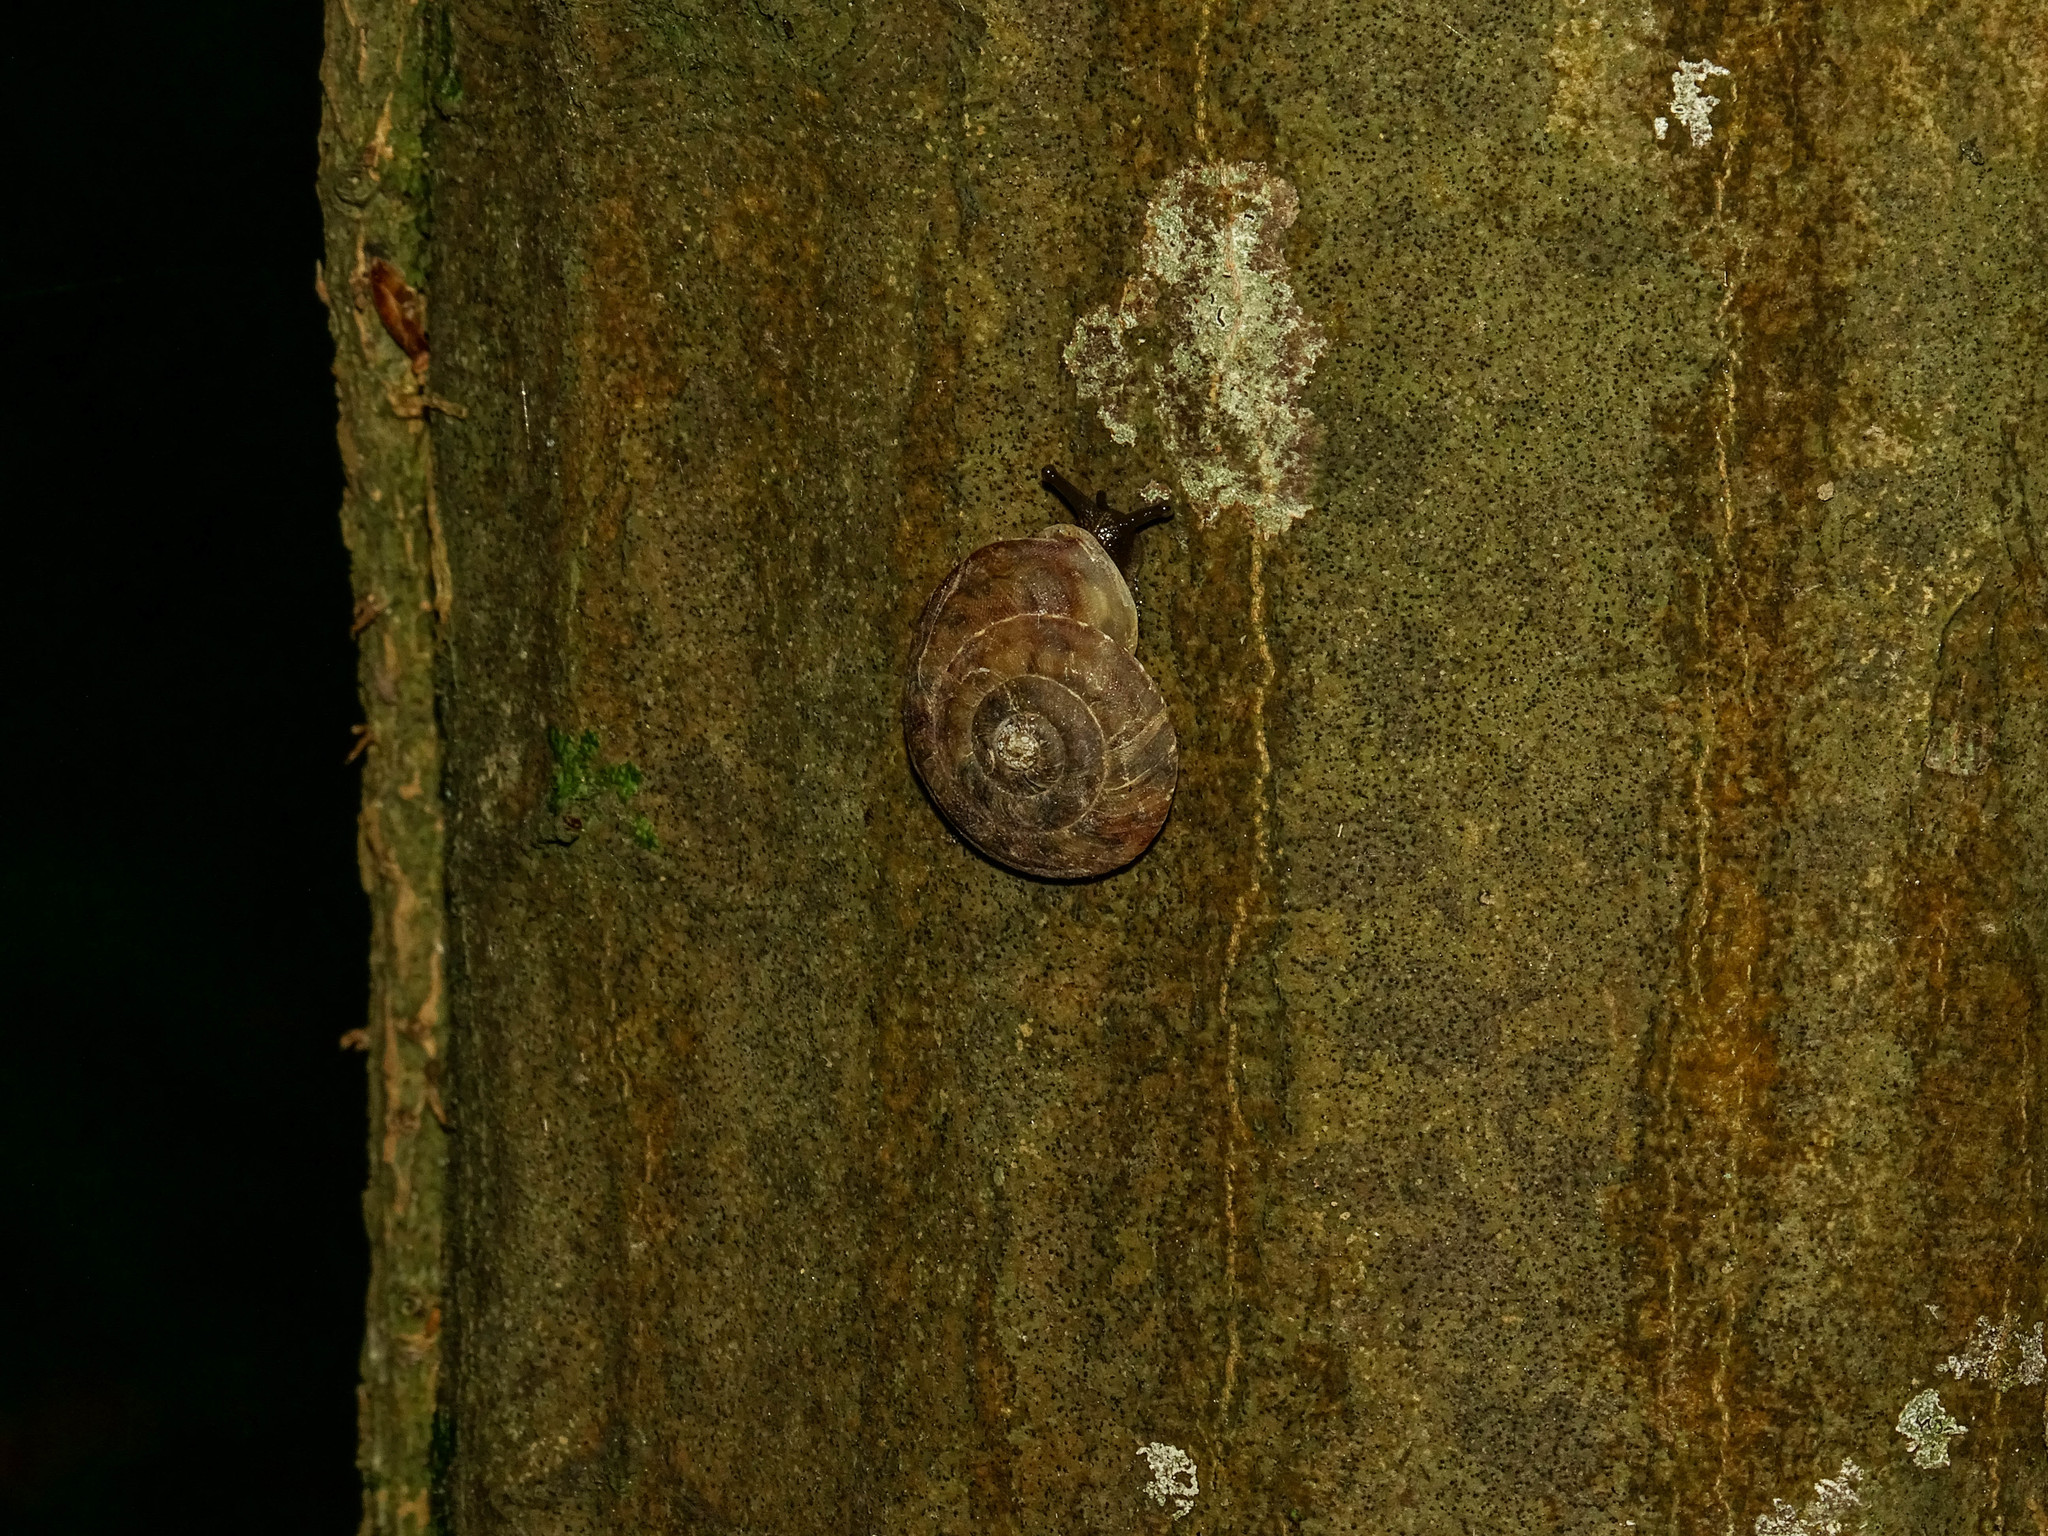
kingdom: Animalia
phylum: Mollusca
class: Gastropoda
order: Stylommatophora
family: Helicidae
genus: Helicigona
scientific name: Helicigona lapicida
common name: Lapidary snail
